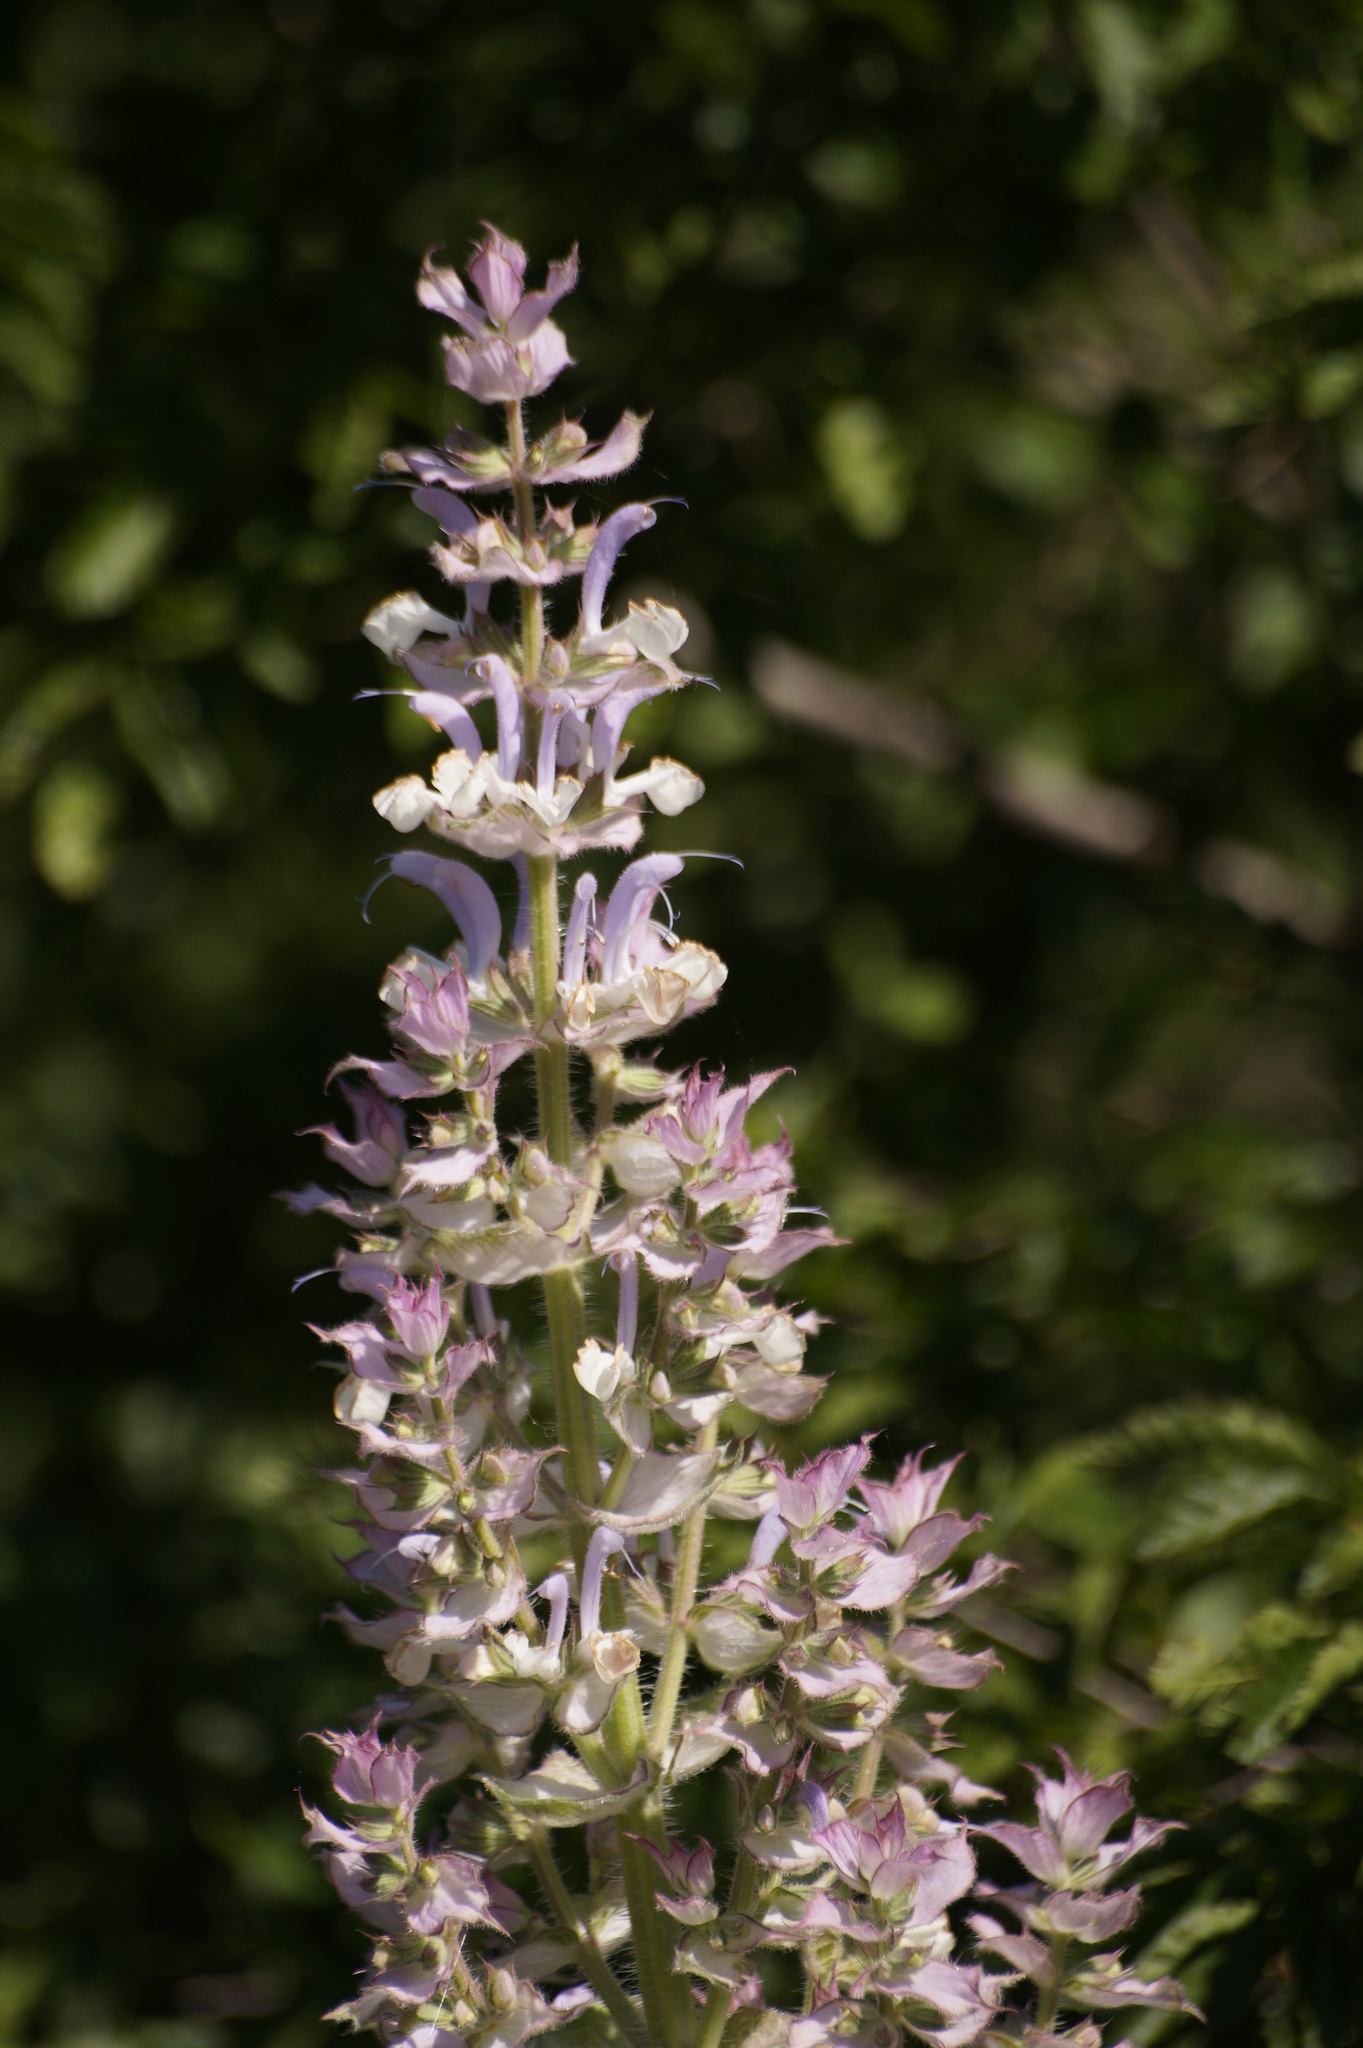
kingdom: Plantae
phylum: Tracheophyta
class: Magnoliopsida
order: Lamiales
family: Lamiaceae
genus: Salvia
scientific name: Salvia sclarea
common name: Clary
